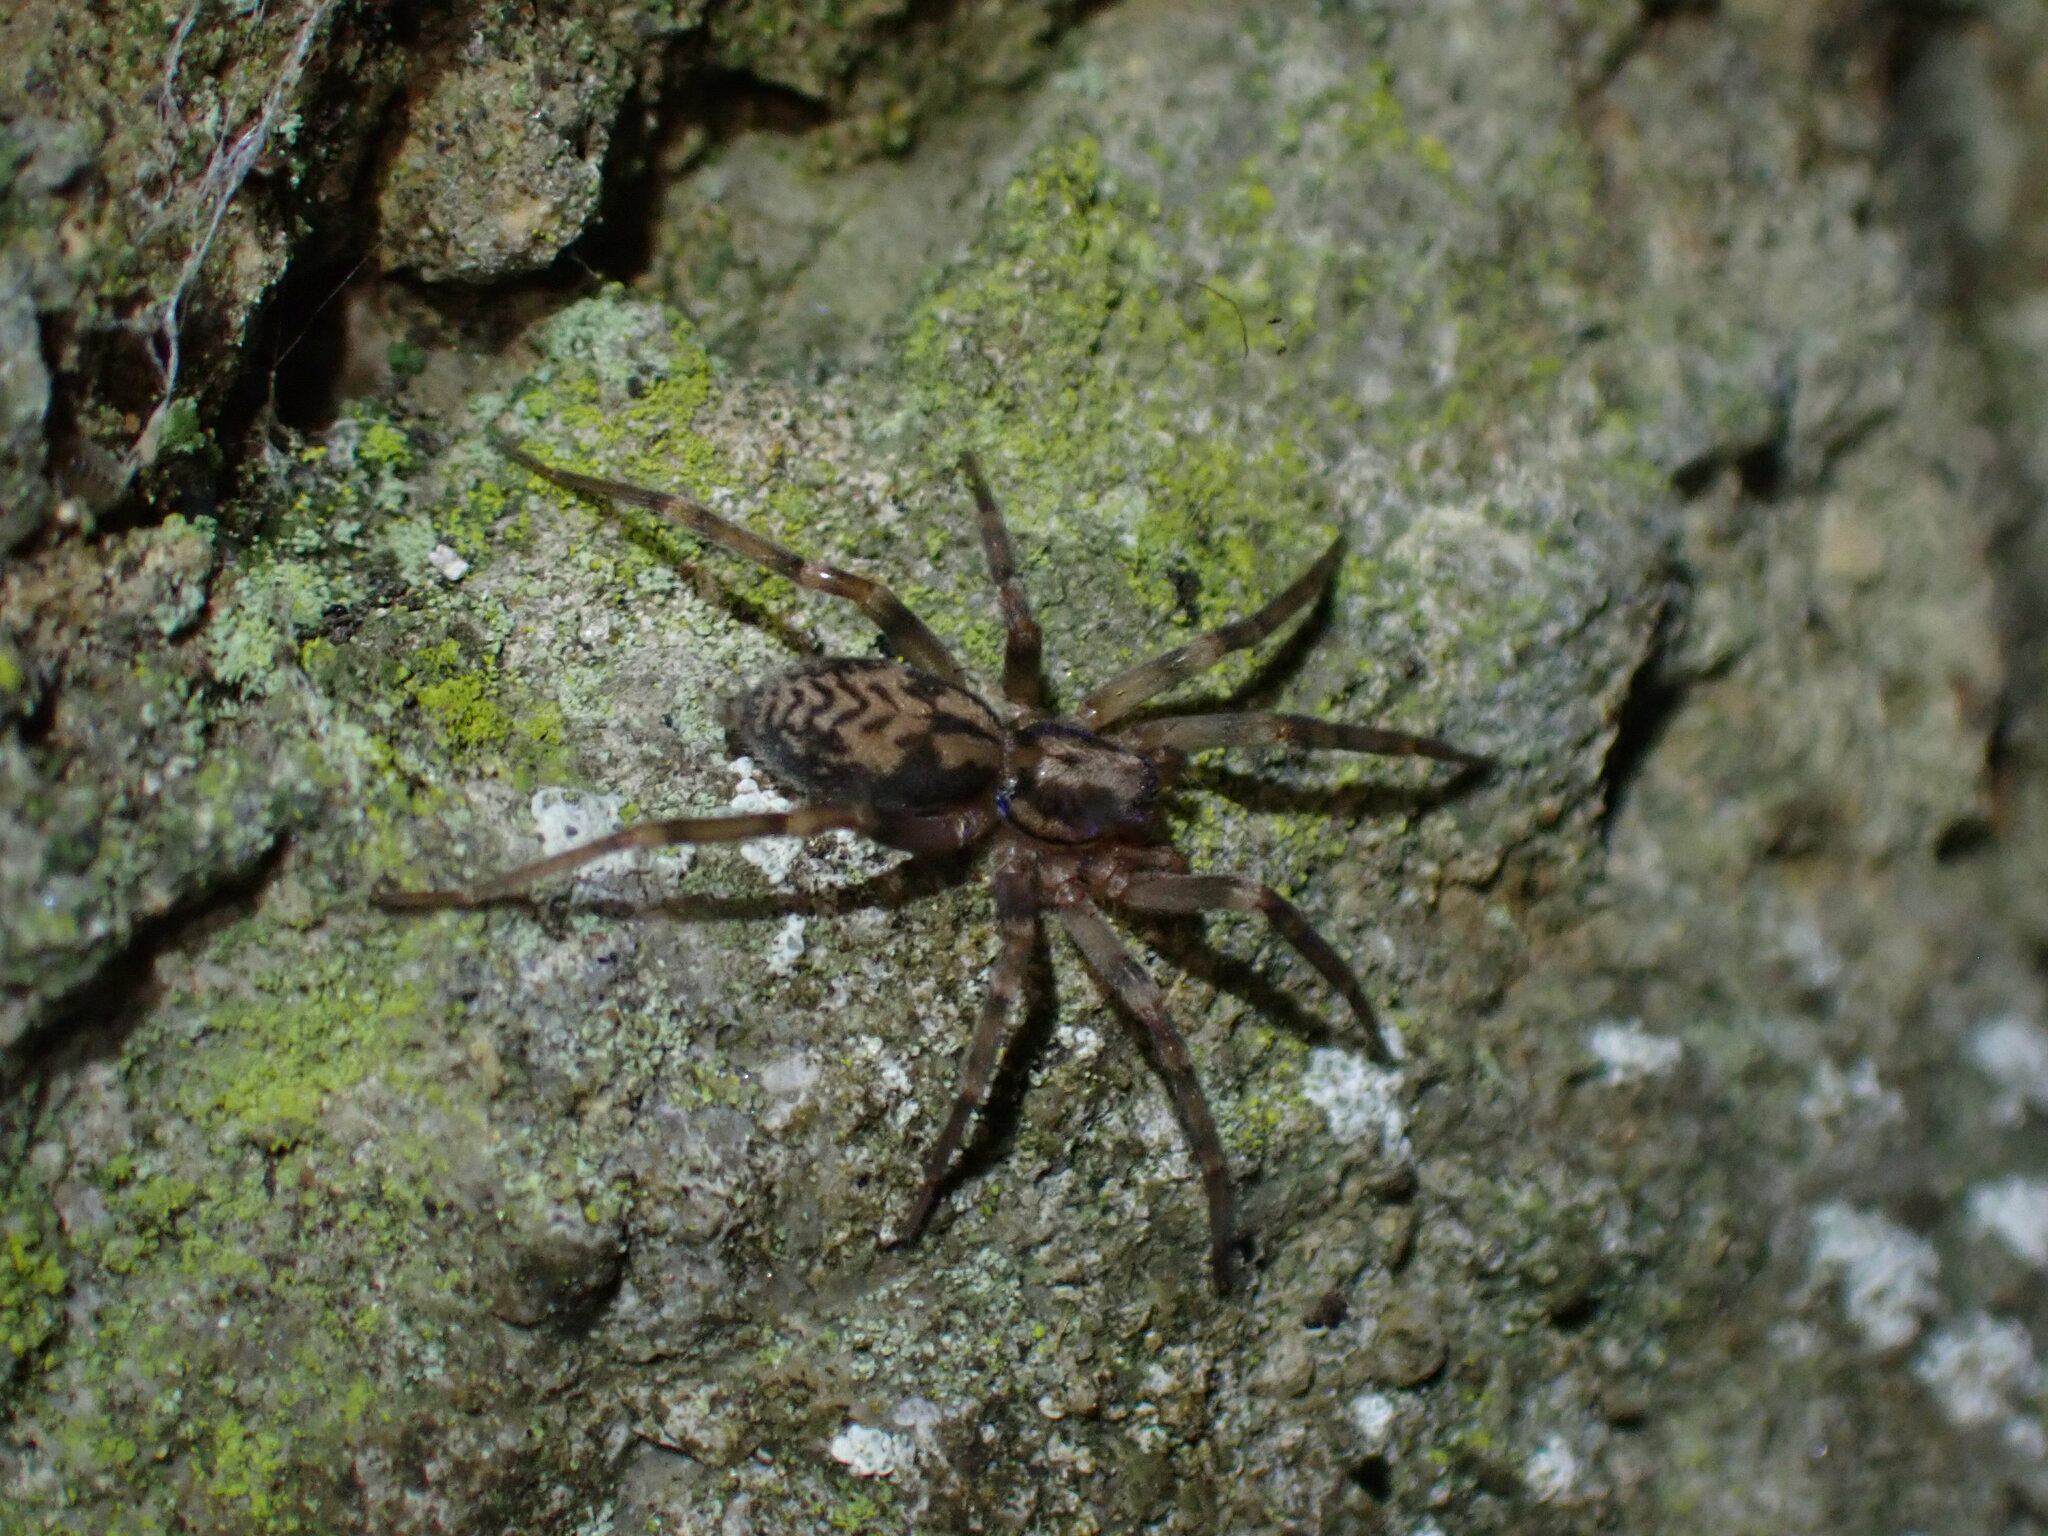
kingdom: Animalia
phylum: Arthropoda
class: Arachnida
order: Araneae
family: Liocranidae
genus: Liocranum
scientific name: Liocranum rupicola
